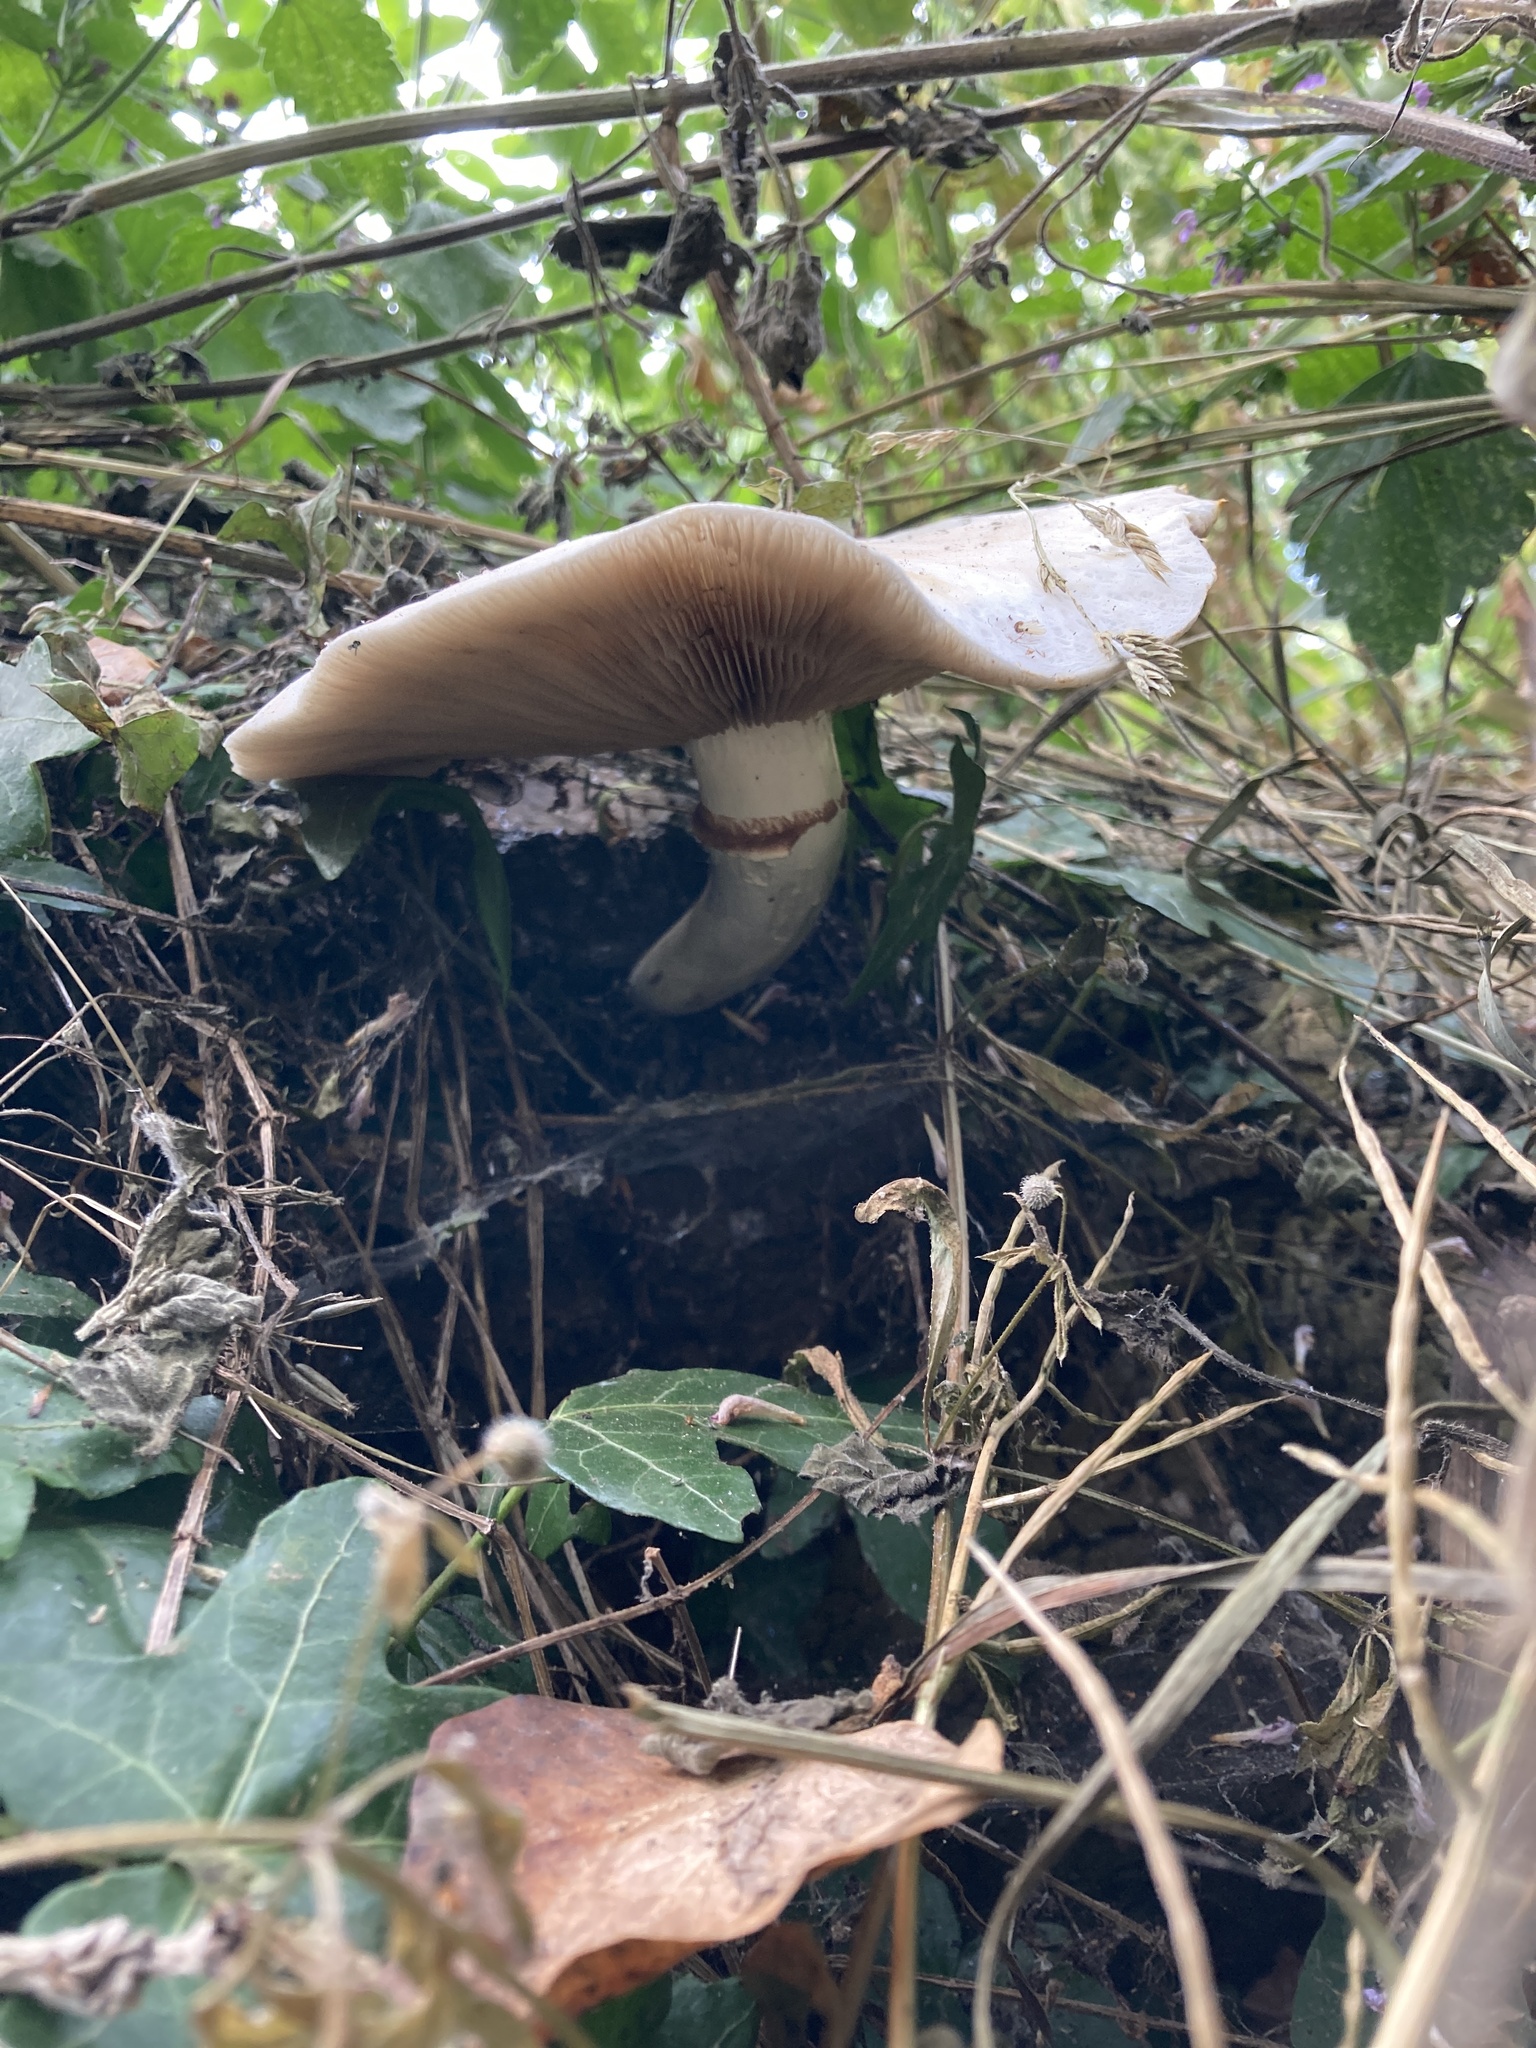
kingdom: Fungi
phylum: Basidiomycota
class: Agaricomycetes
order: Agaricales
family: Tubariaceae
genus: Cyclocybe
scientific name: Cyclocybe cylindracea
